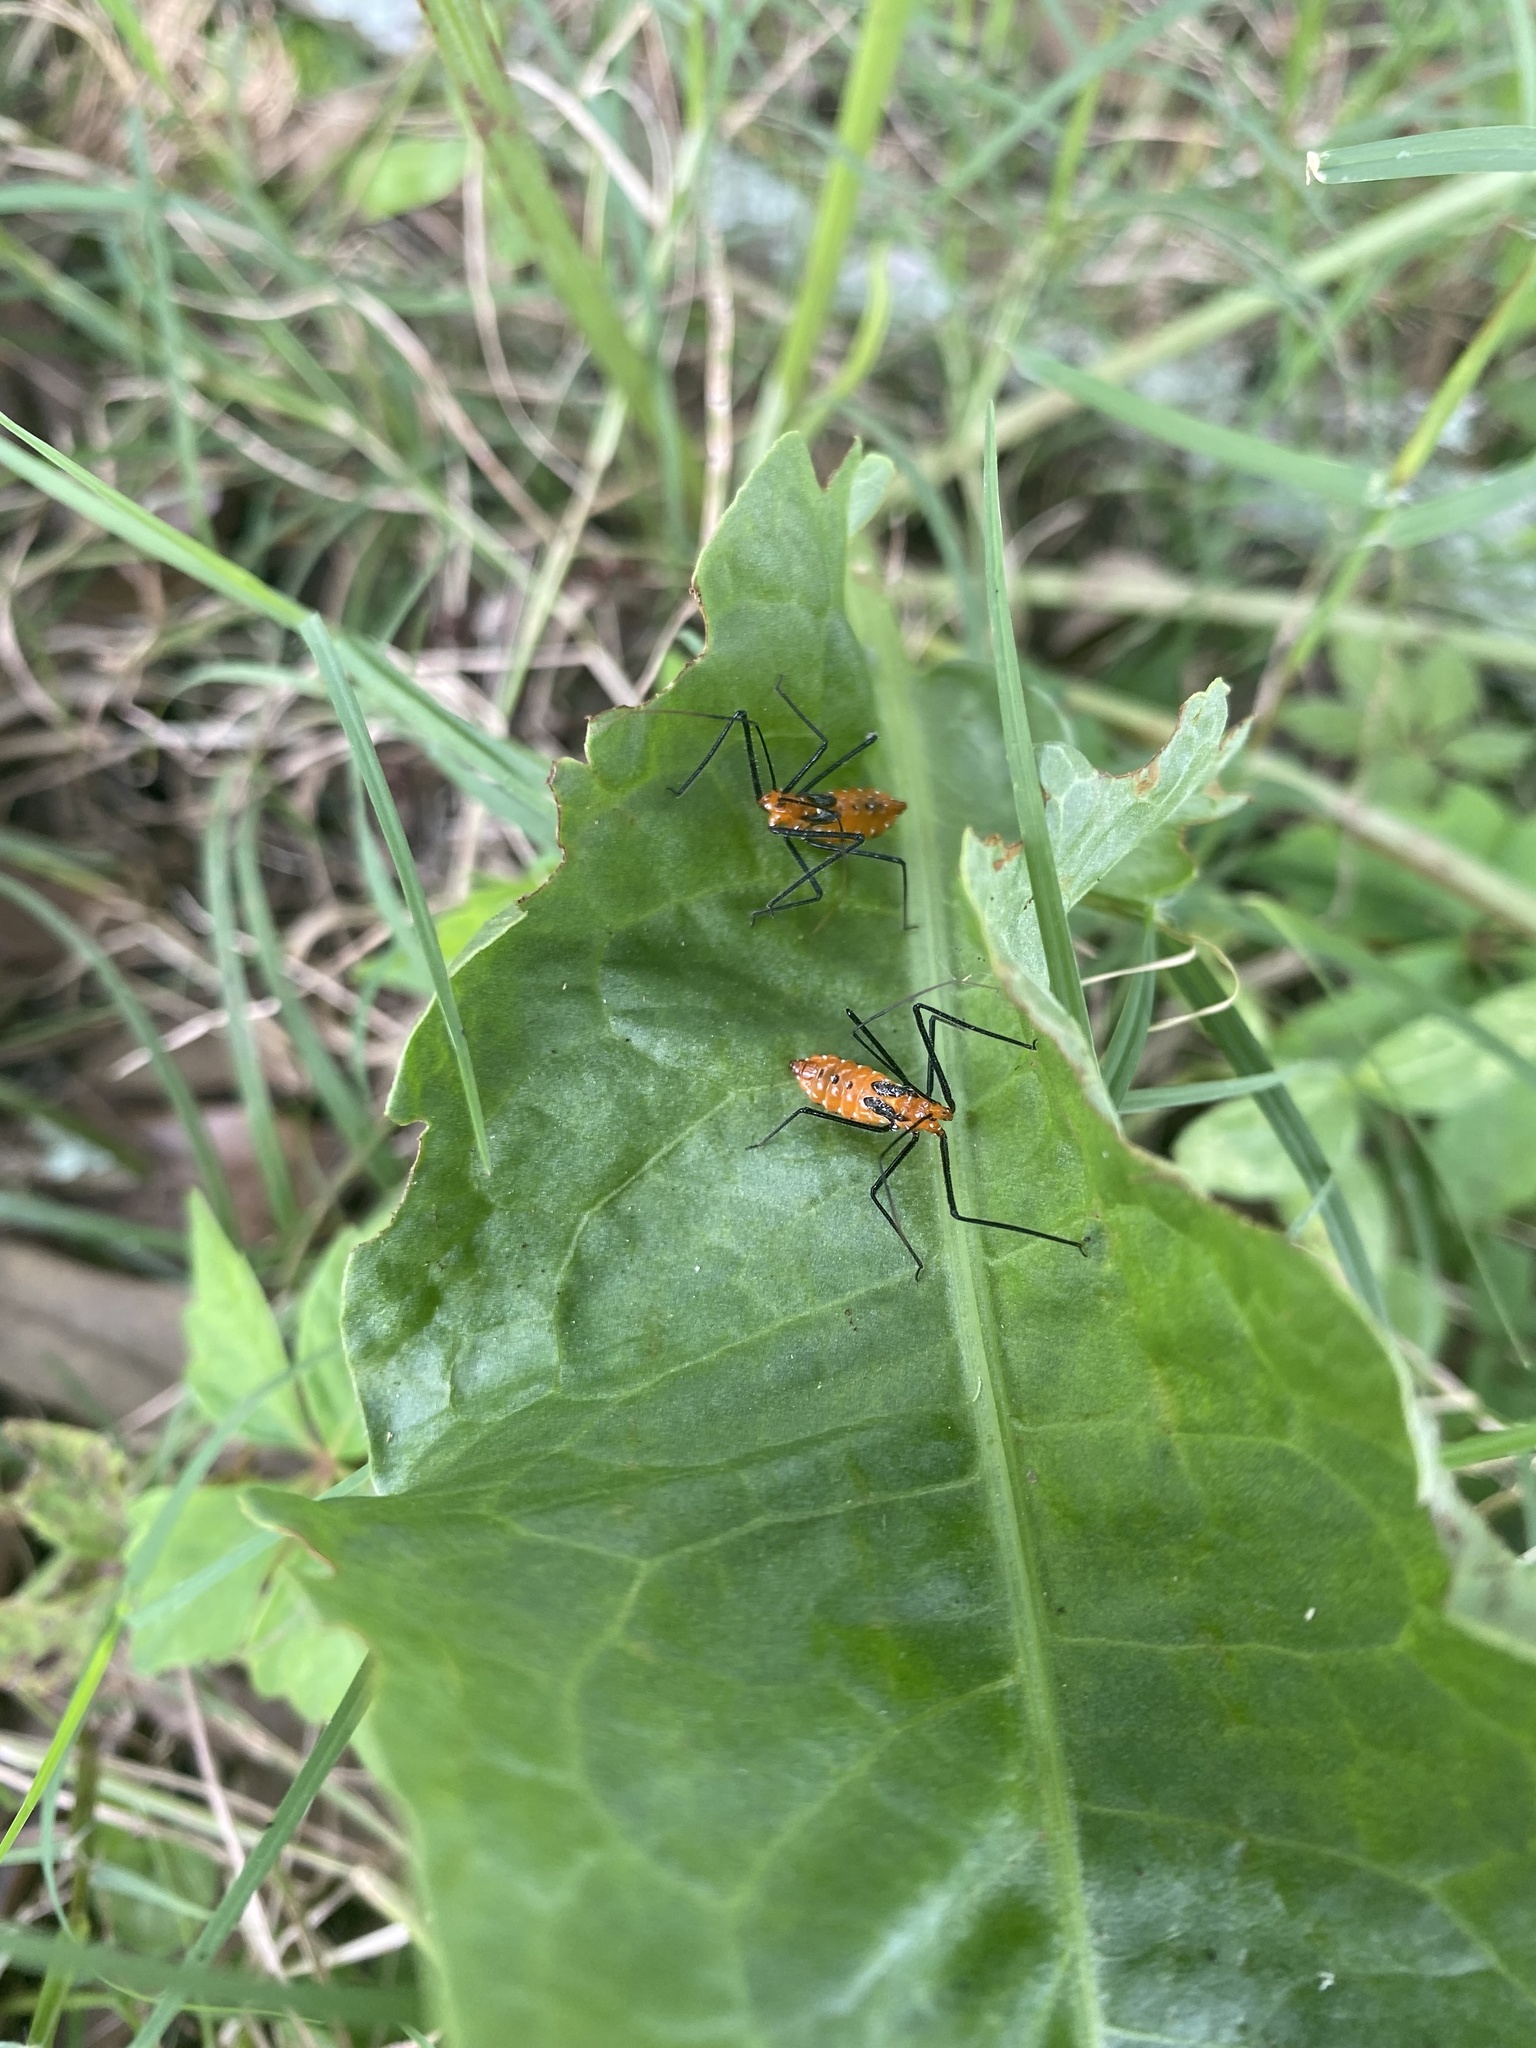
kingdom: Animalia
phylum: Arthropoda
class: Insecta
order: Hemiptera
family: Reduviidae
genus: Zelus
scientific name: Zelus longipes
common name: Milkweed assassin bug
